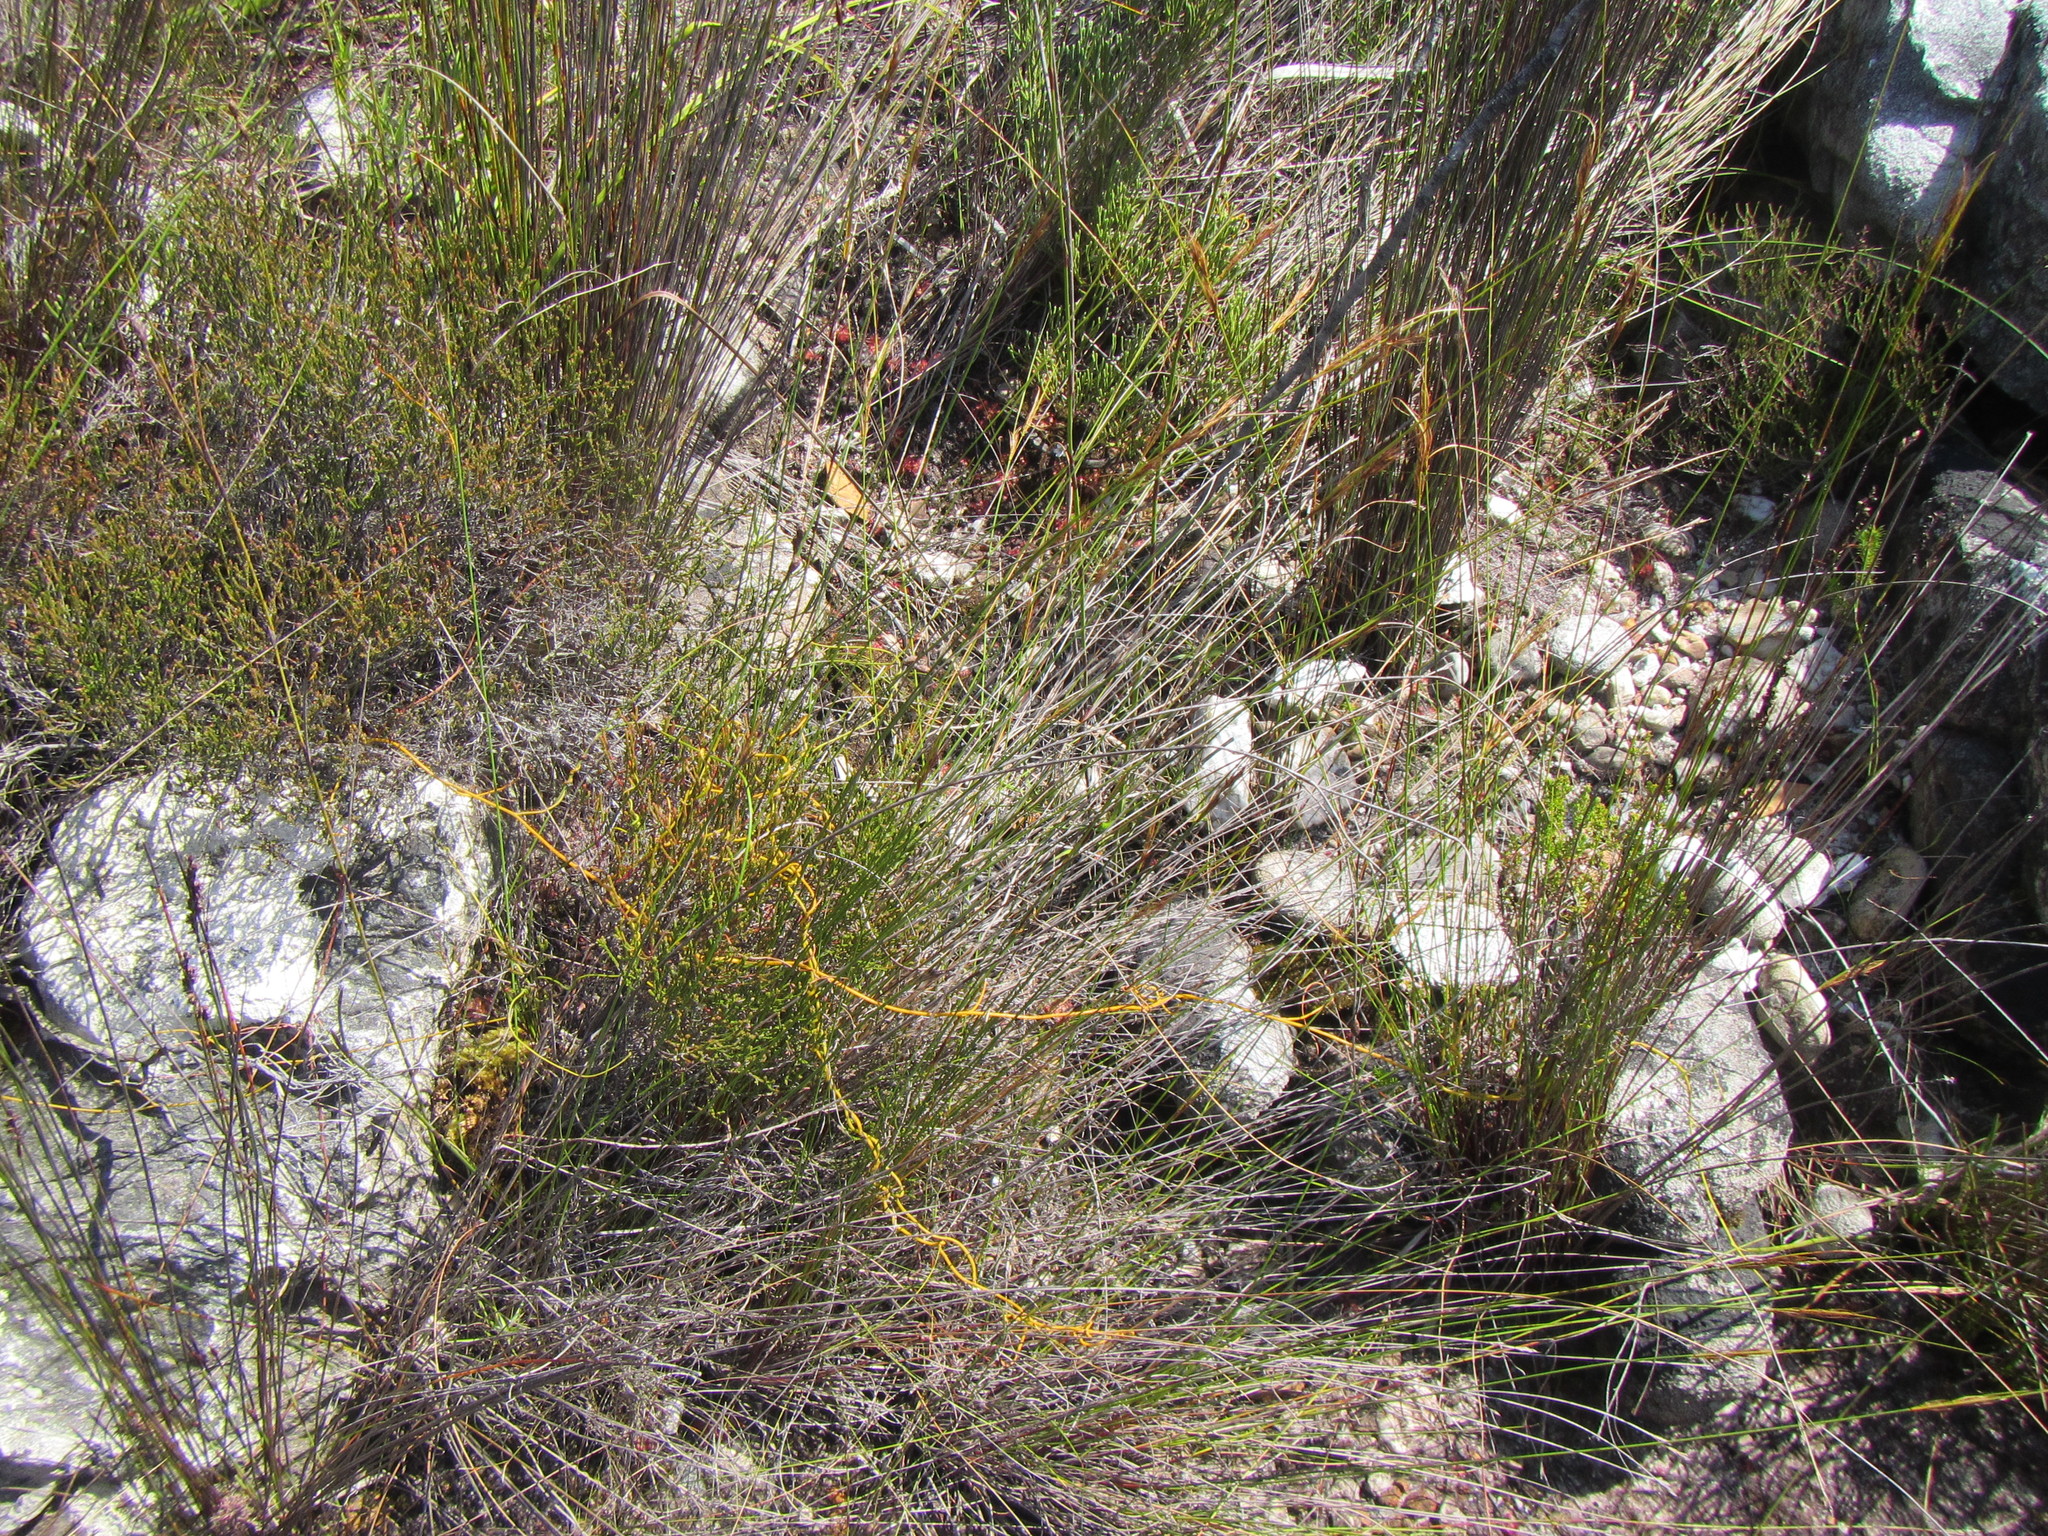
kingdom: Plantae
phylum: Tracheophyta
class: Liliopsida
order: Poales
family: Cyperaceae
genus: Schoenus
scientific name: Schoenus crassus
